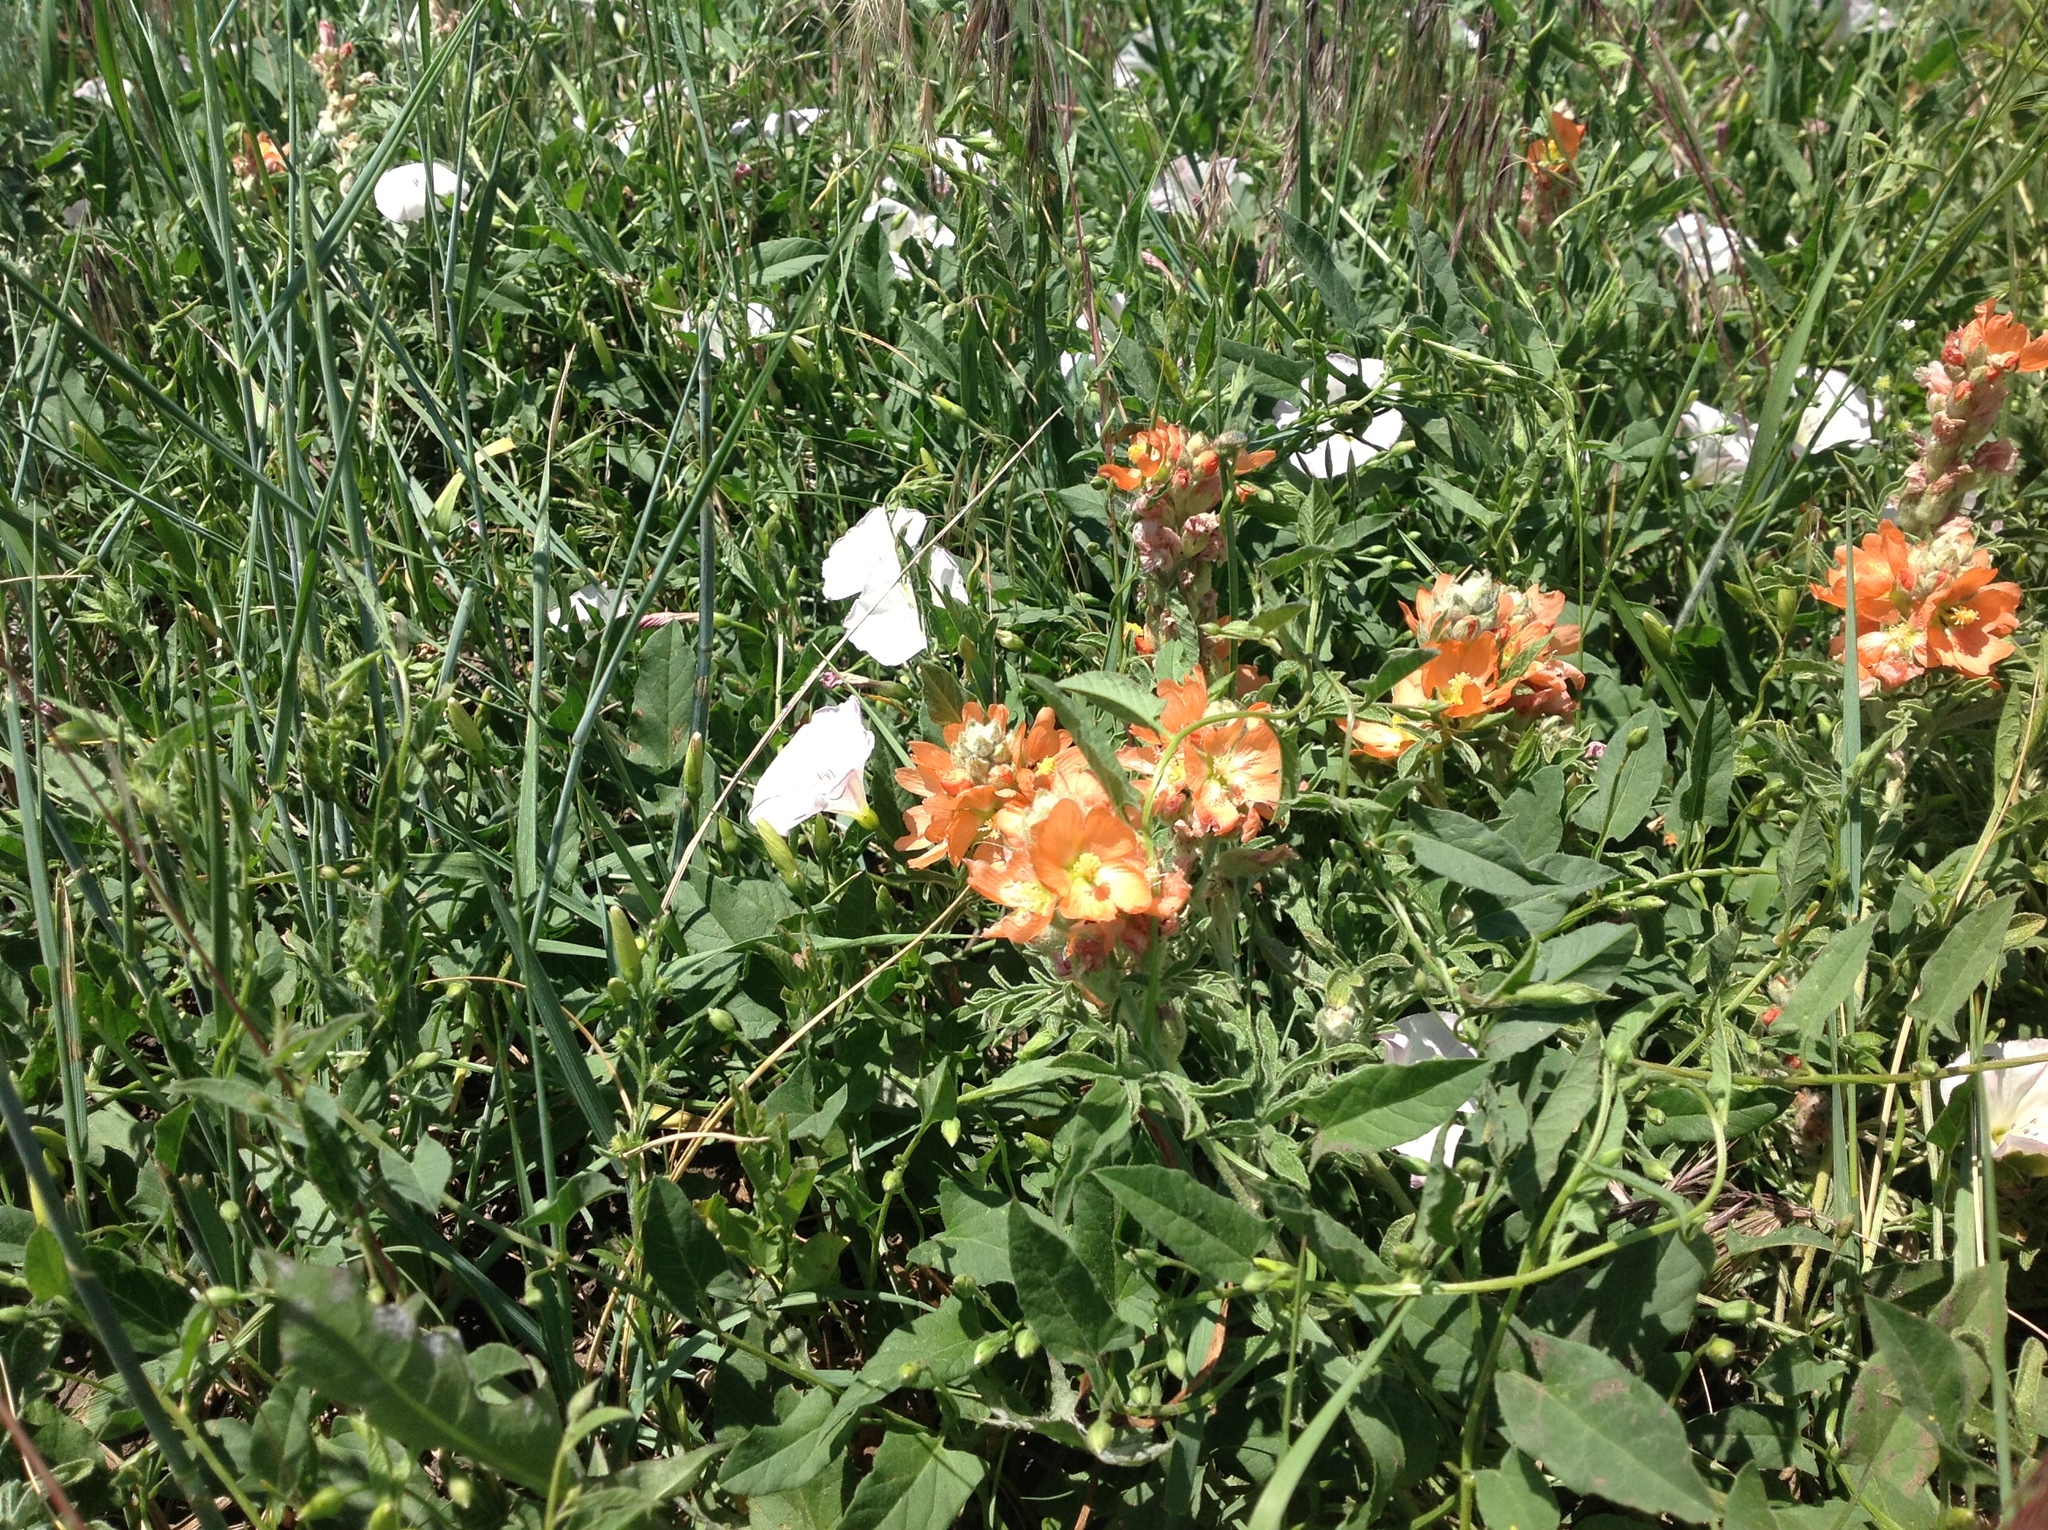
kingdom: Plantae
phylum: Tracheophyta
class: Magnoliopsida
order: Malvales
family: Malvaceae
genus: Sphaeralcea
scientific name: Sphaeralcea coccinea
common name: Moss-rose
